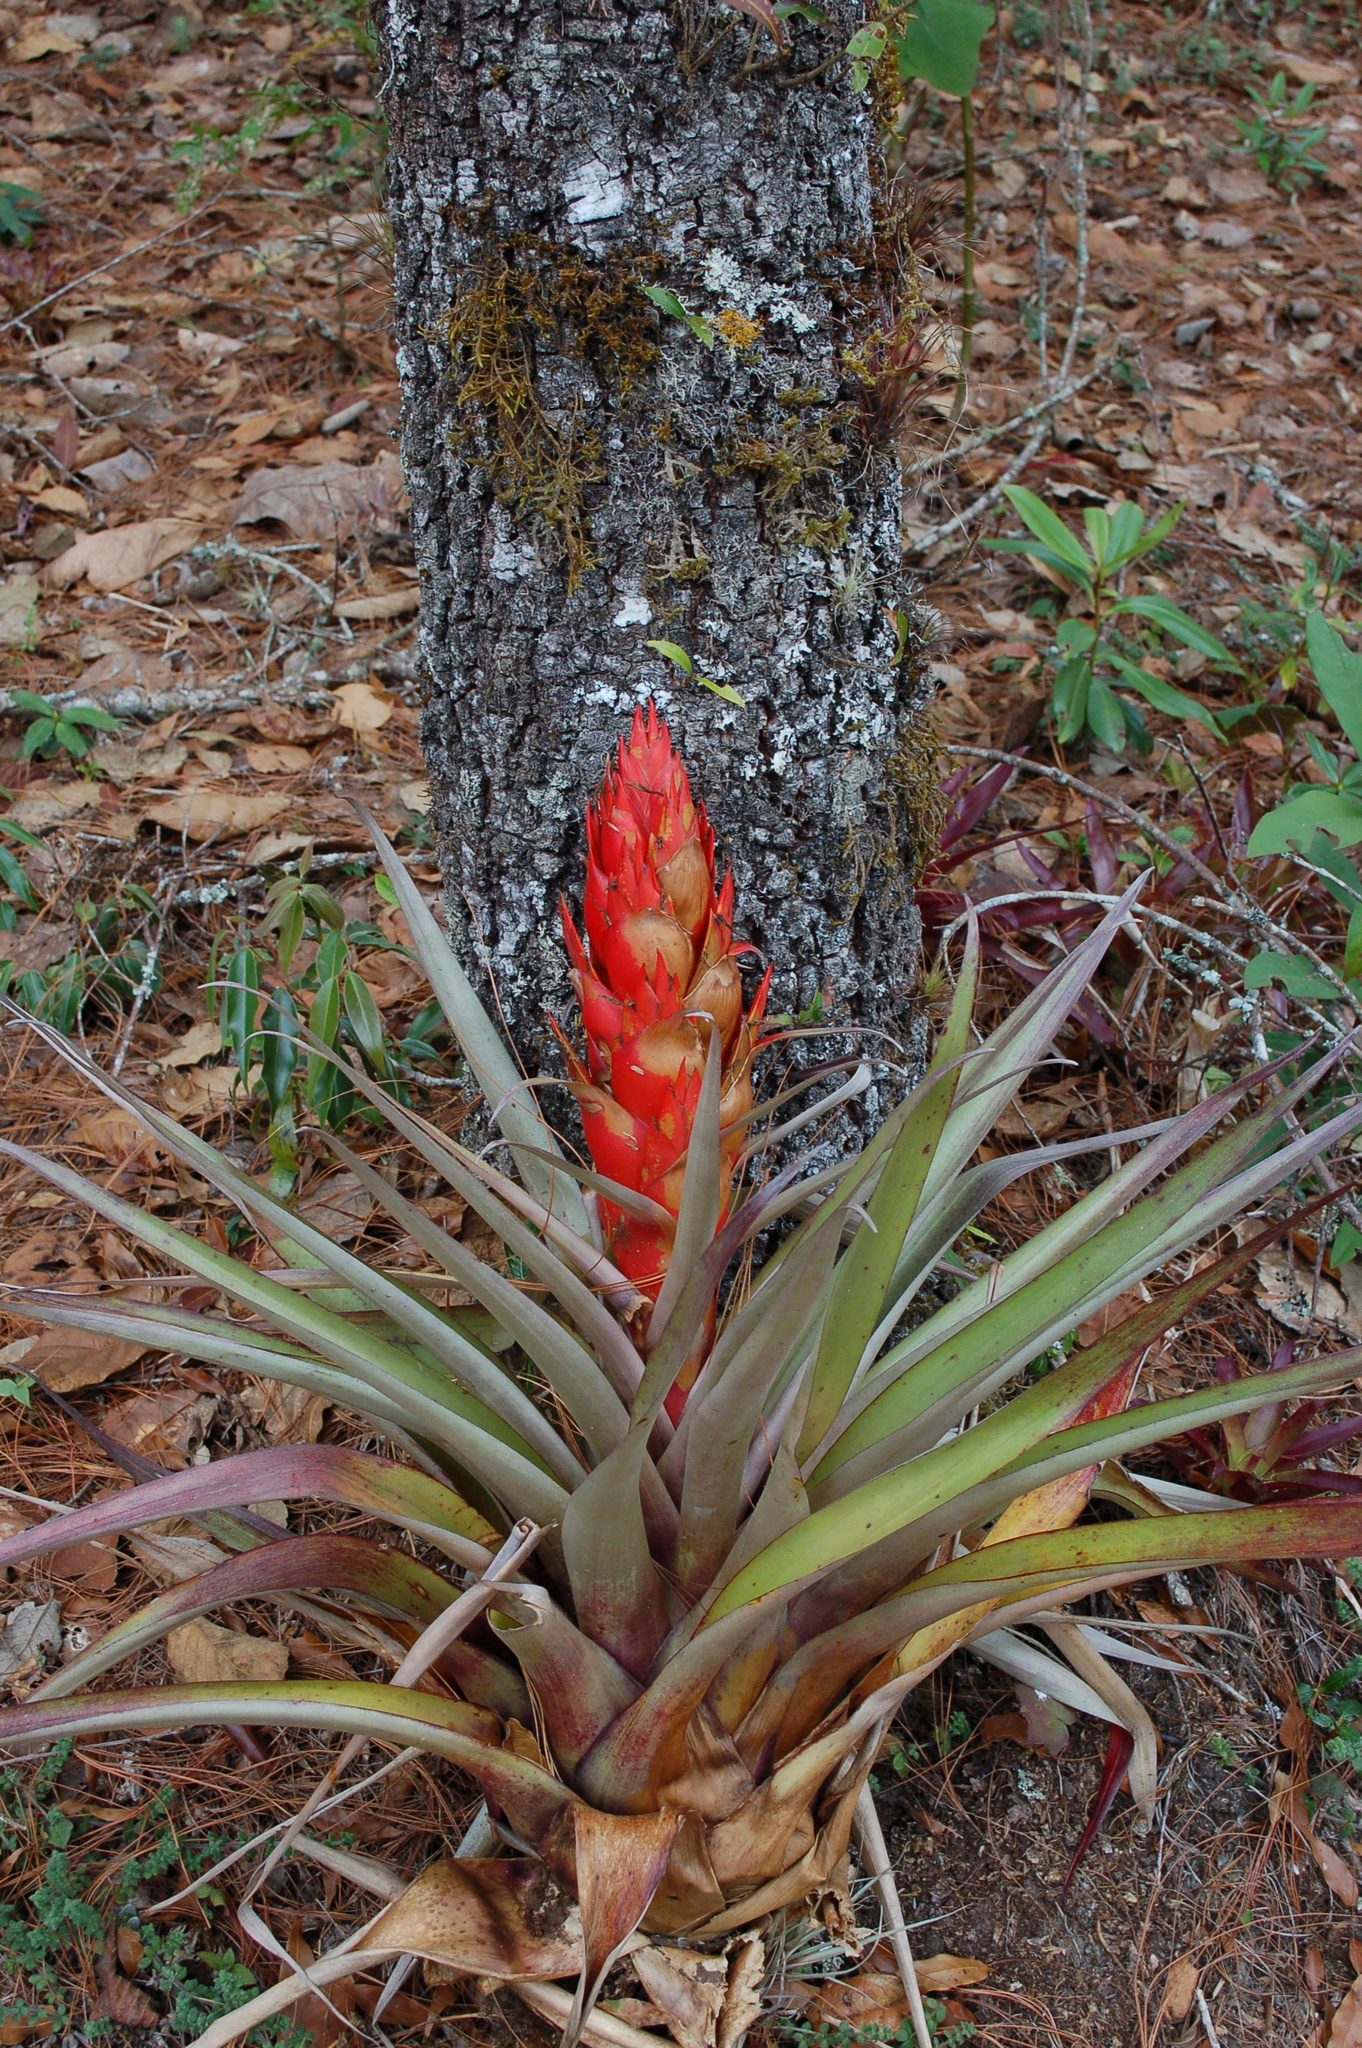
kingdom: Plantae
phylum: Tracheophyta
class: Liliopsida
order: Poales
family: Bromeliaceae
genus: Tillandsia
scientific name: Tillandsia ponderosa
